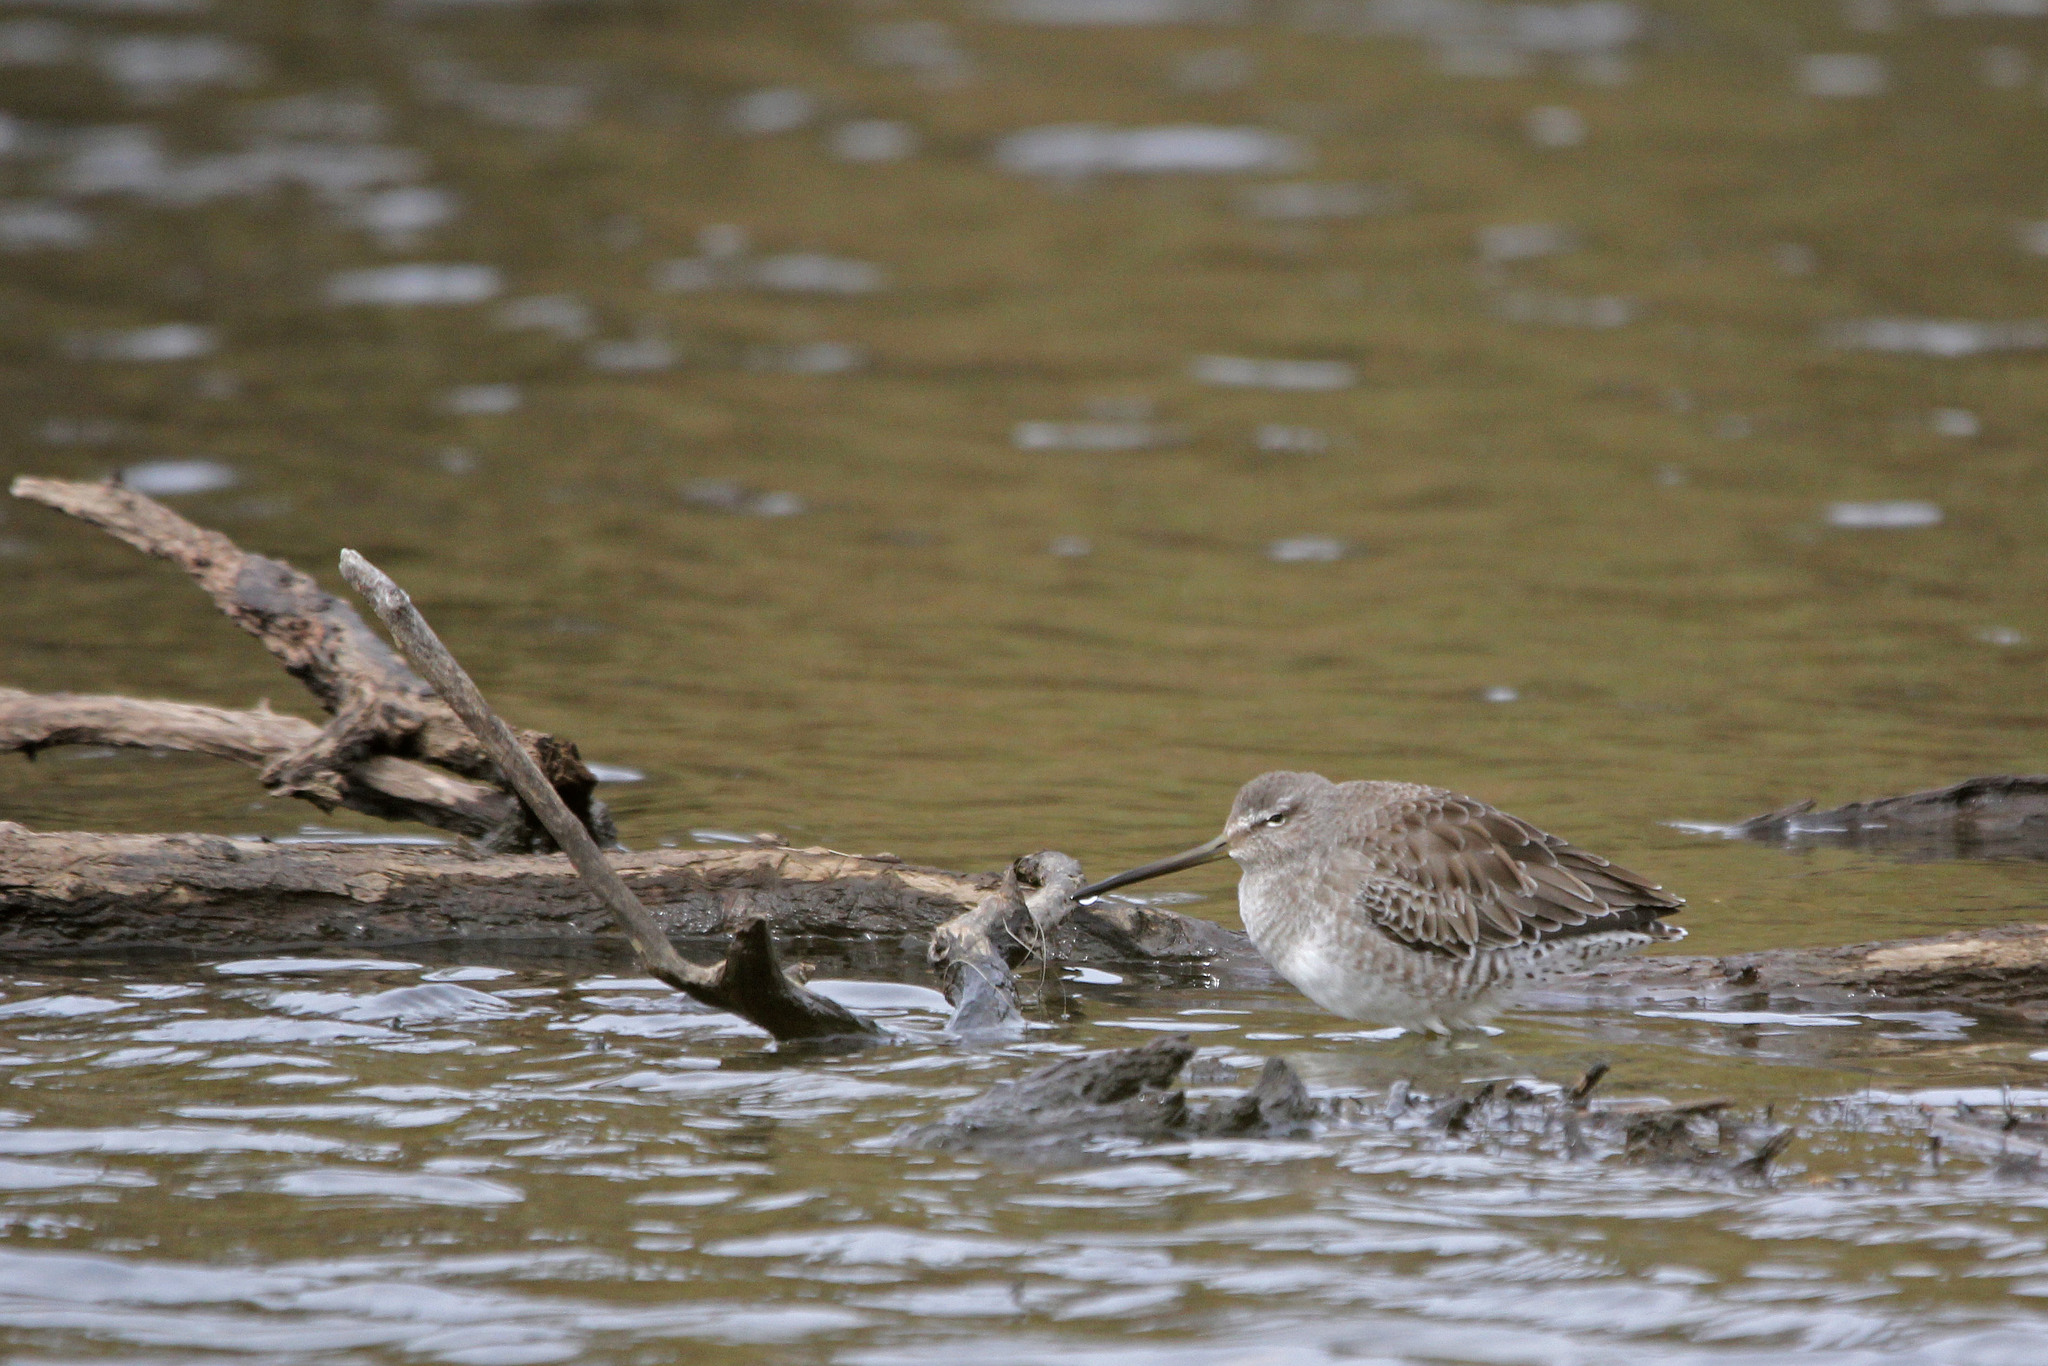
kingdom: Animalia
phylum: Chordata
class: Aves
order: Charadriiformes
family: Scolopacidae
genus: Limnodromus
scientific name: Limnodromus scolopaceus
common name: Long-billed dowitcher
